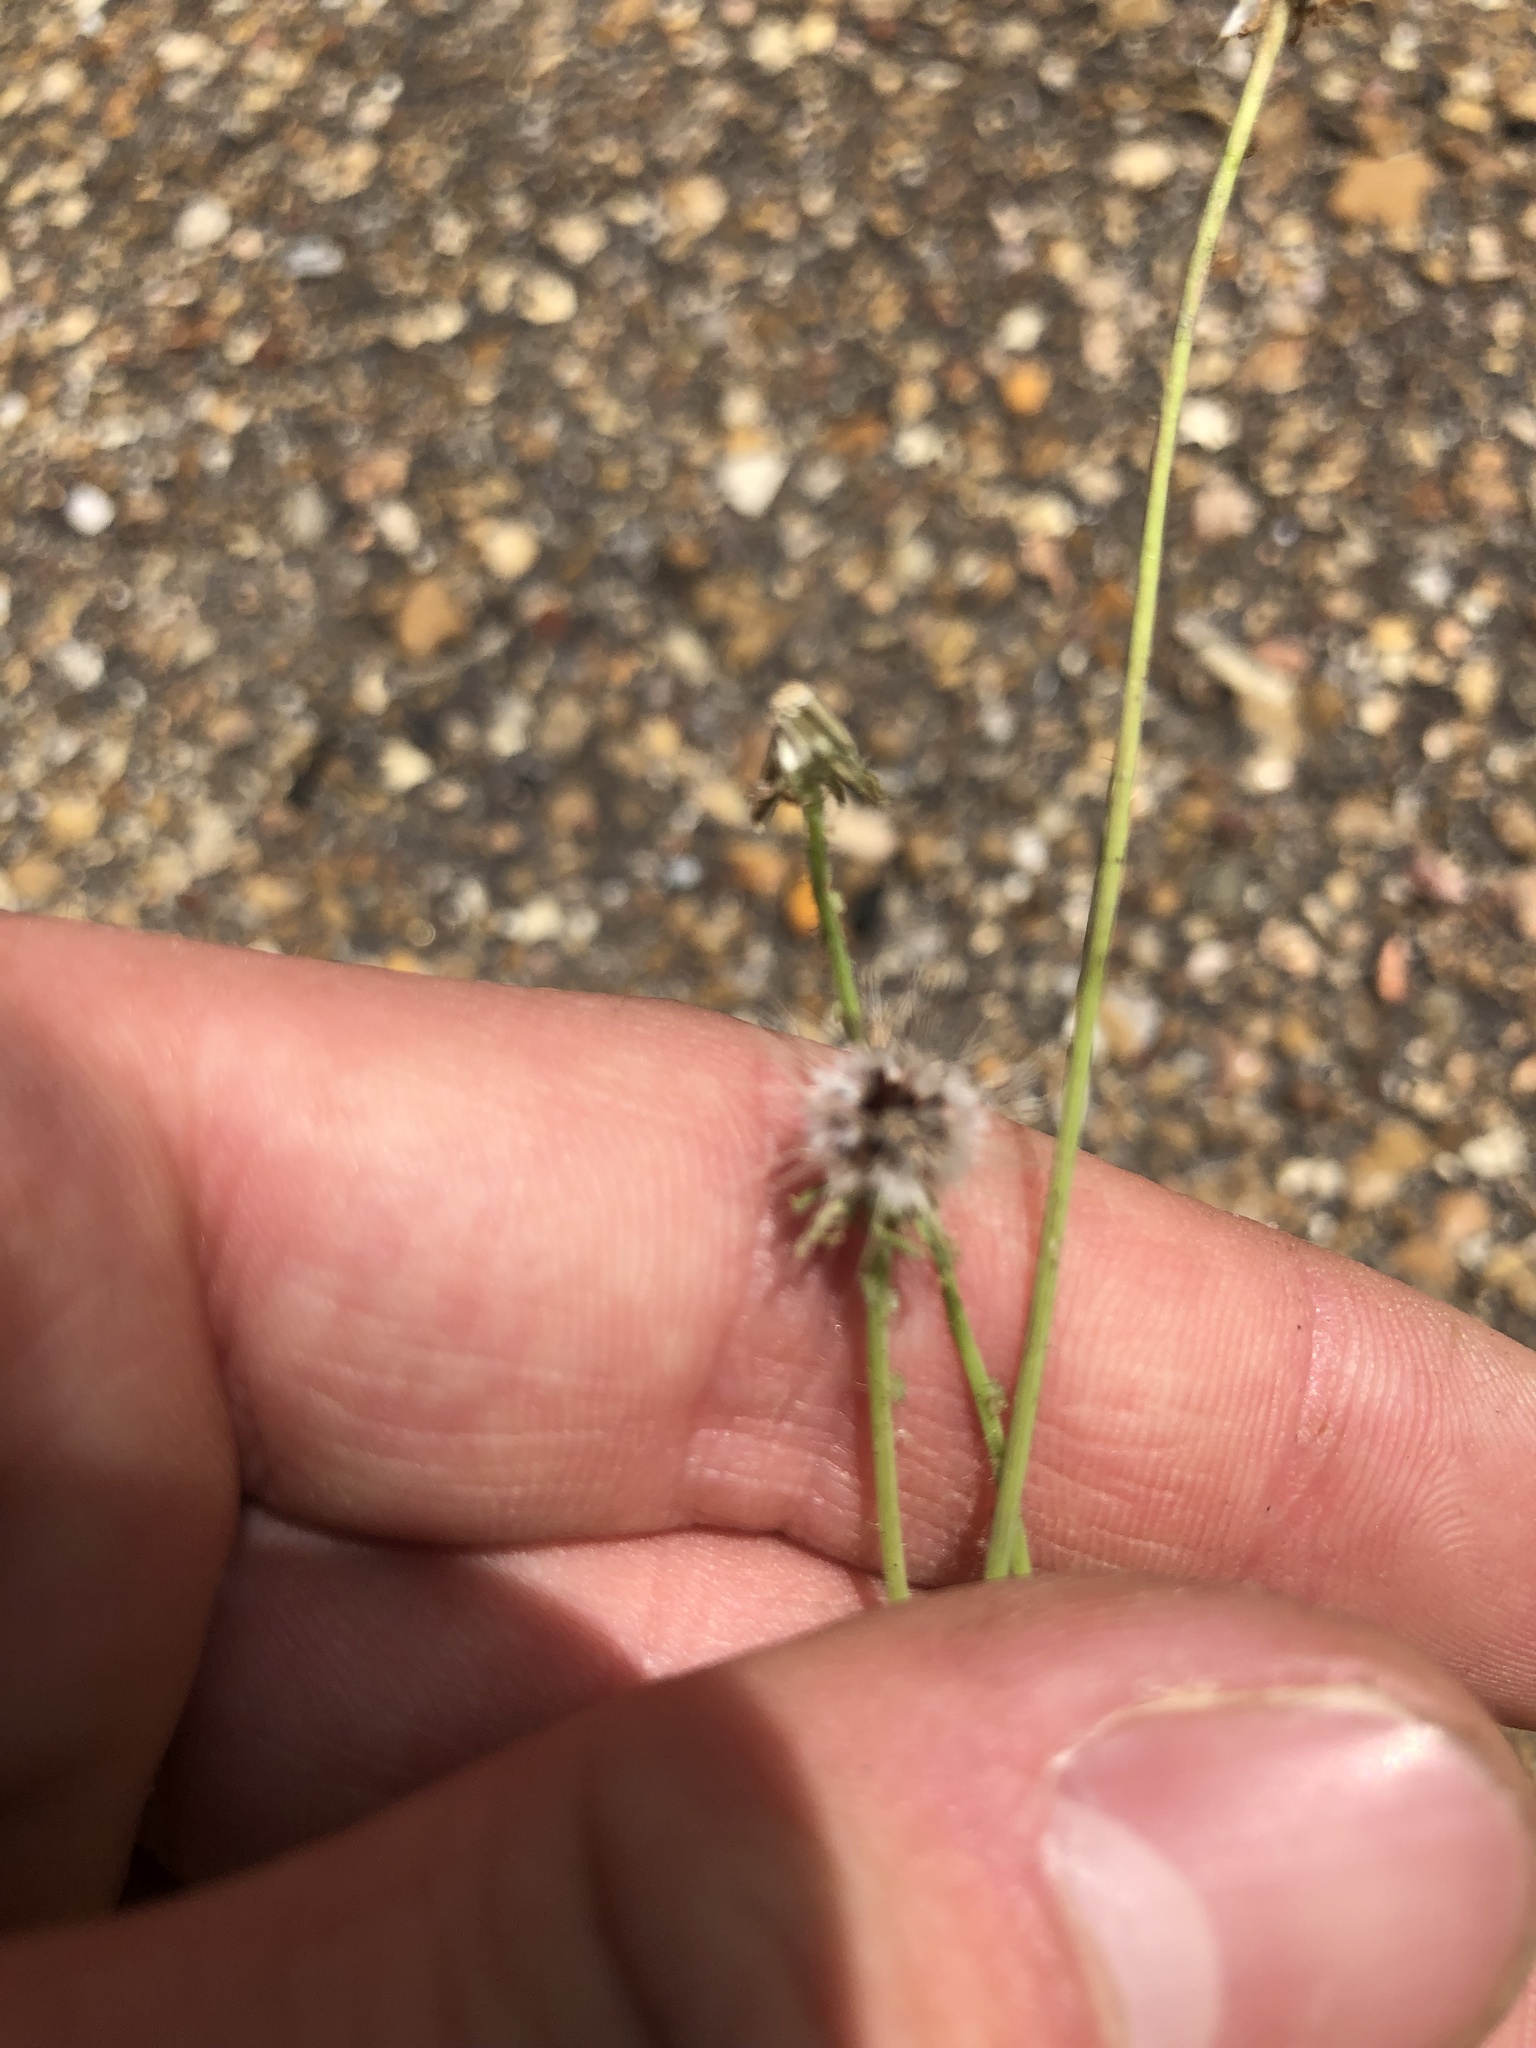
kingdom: Plantae
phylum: Tracheophyta
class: Magnoliopsida
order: Asterales
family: Asteraceae
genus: Krigia
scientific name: Krigia virginica
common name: Virginia dwarf-dandelion
